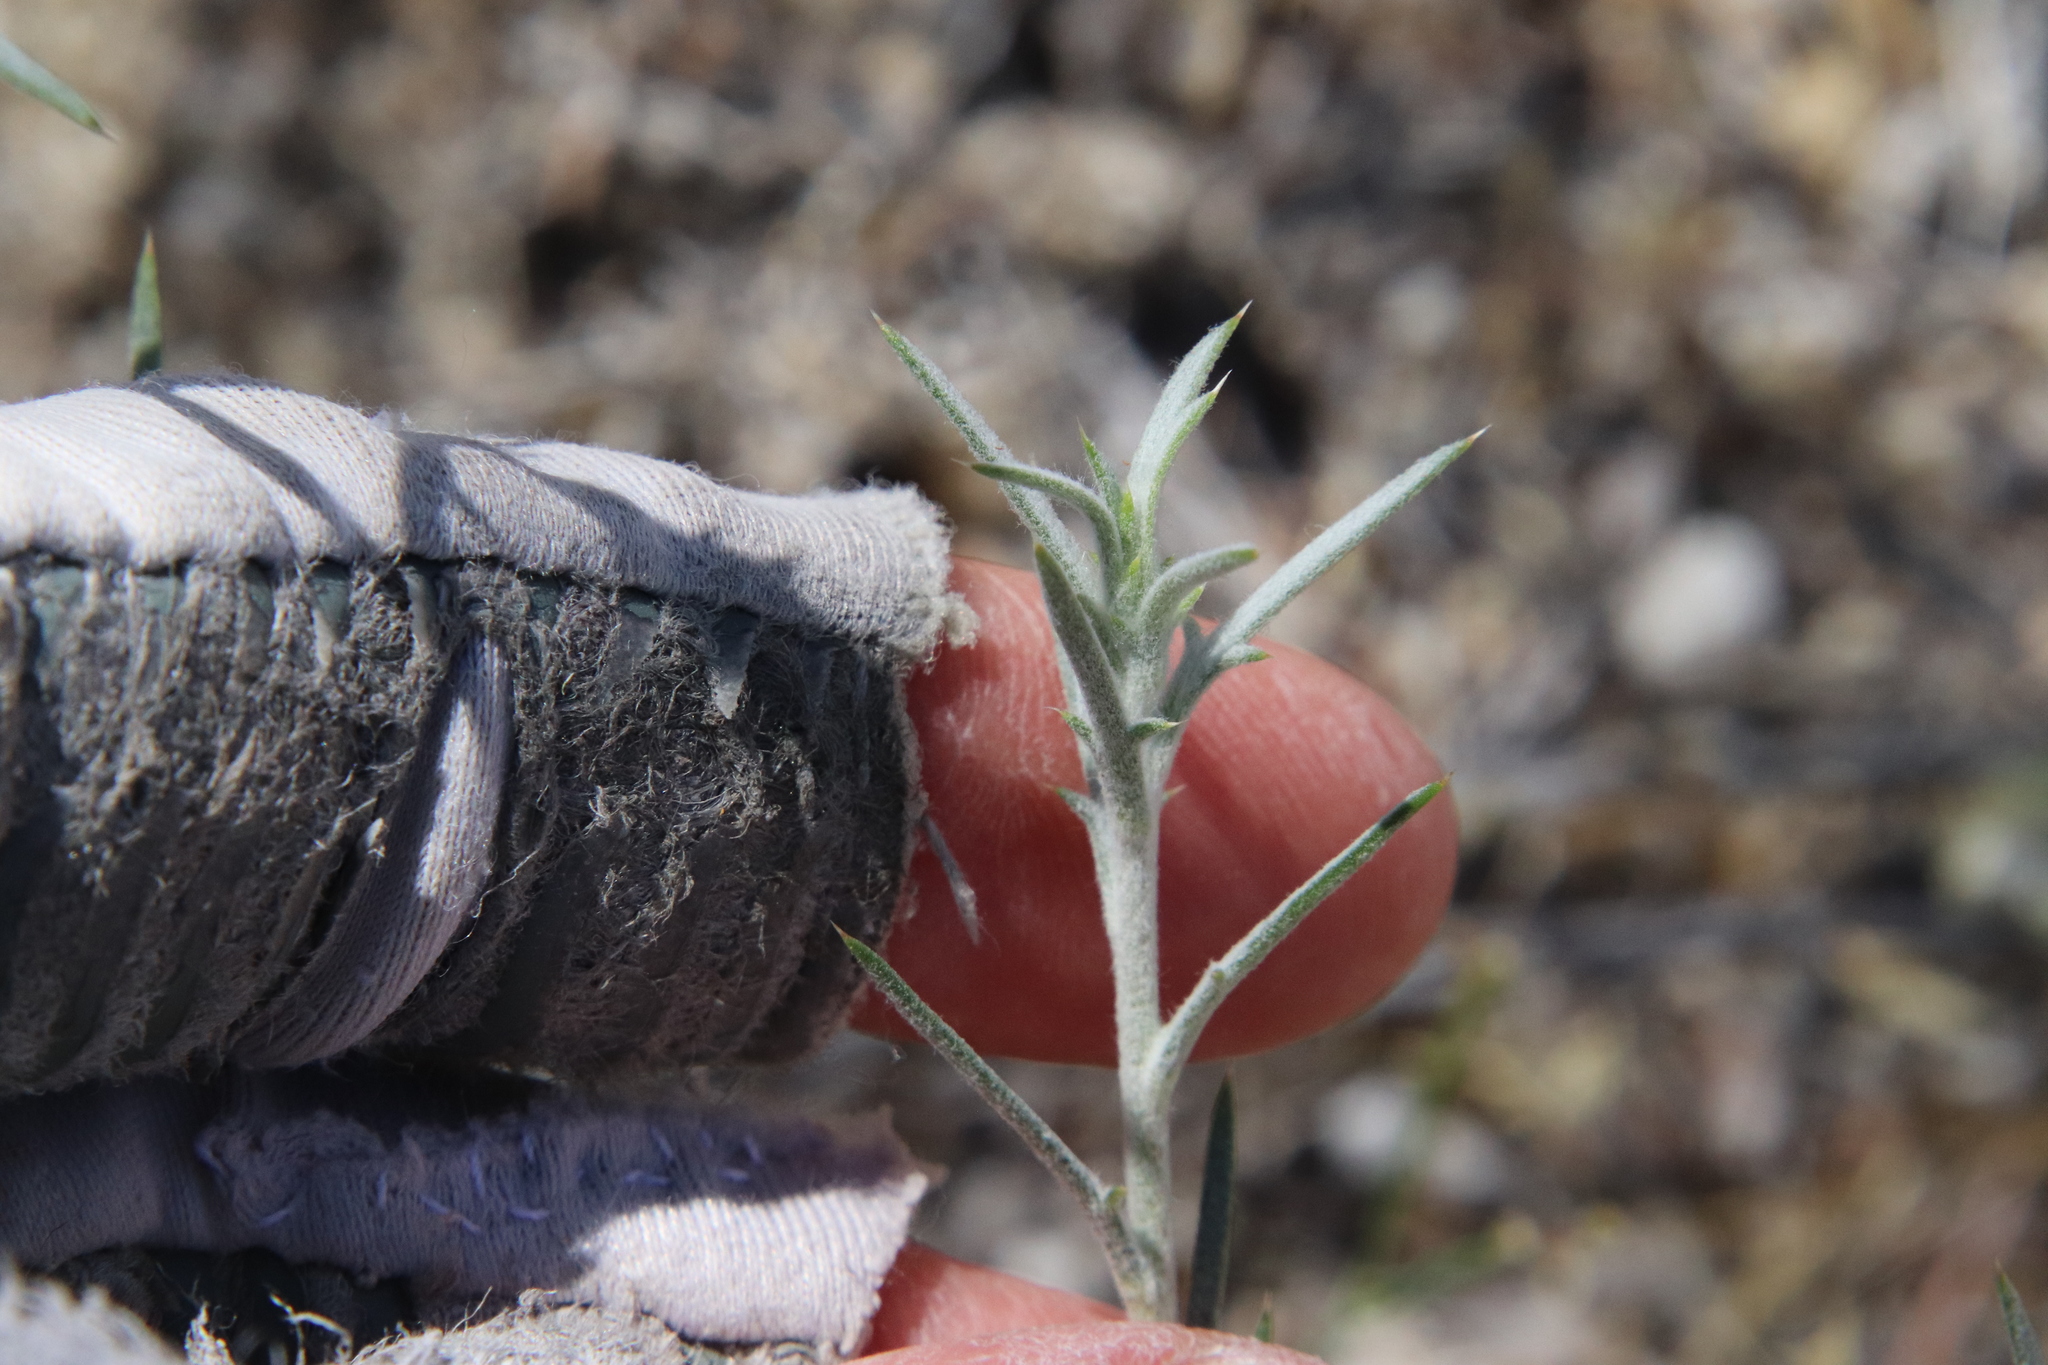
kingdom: Plantae
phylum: Tracheophyta
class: Magnoliopsida
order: Ericales
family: Polemoniaceae
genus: Eriastrum
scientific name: Eriastrum densifolium
